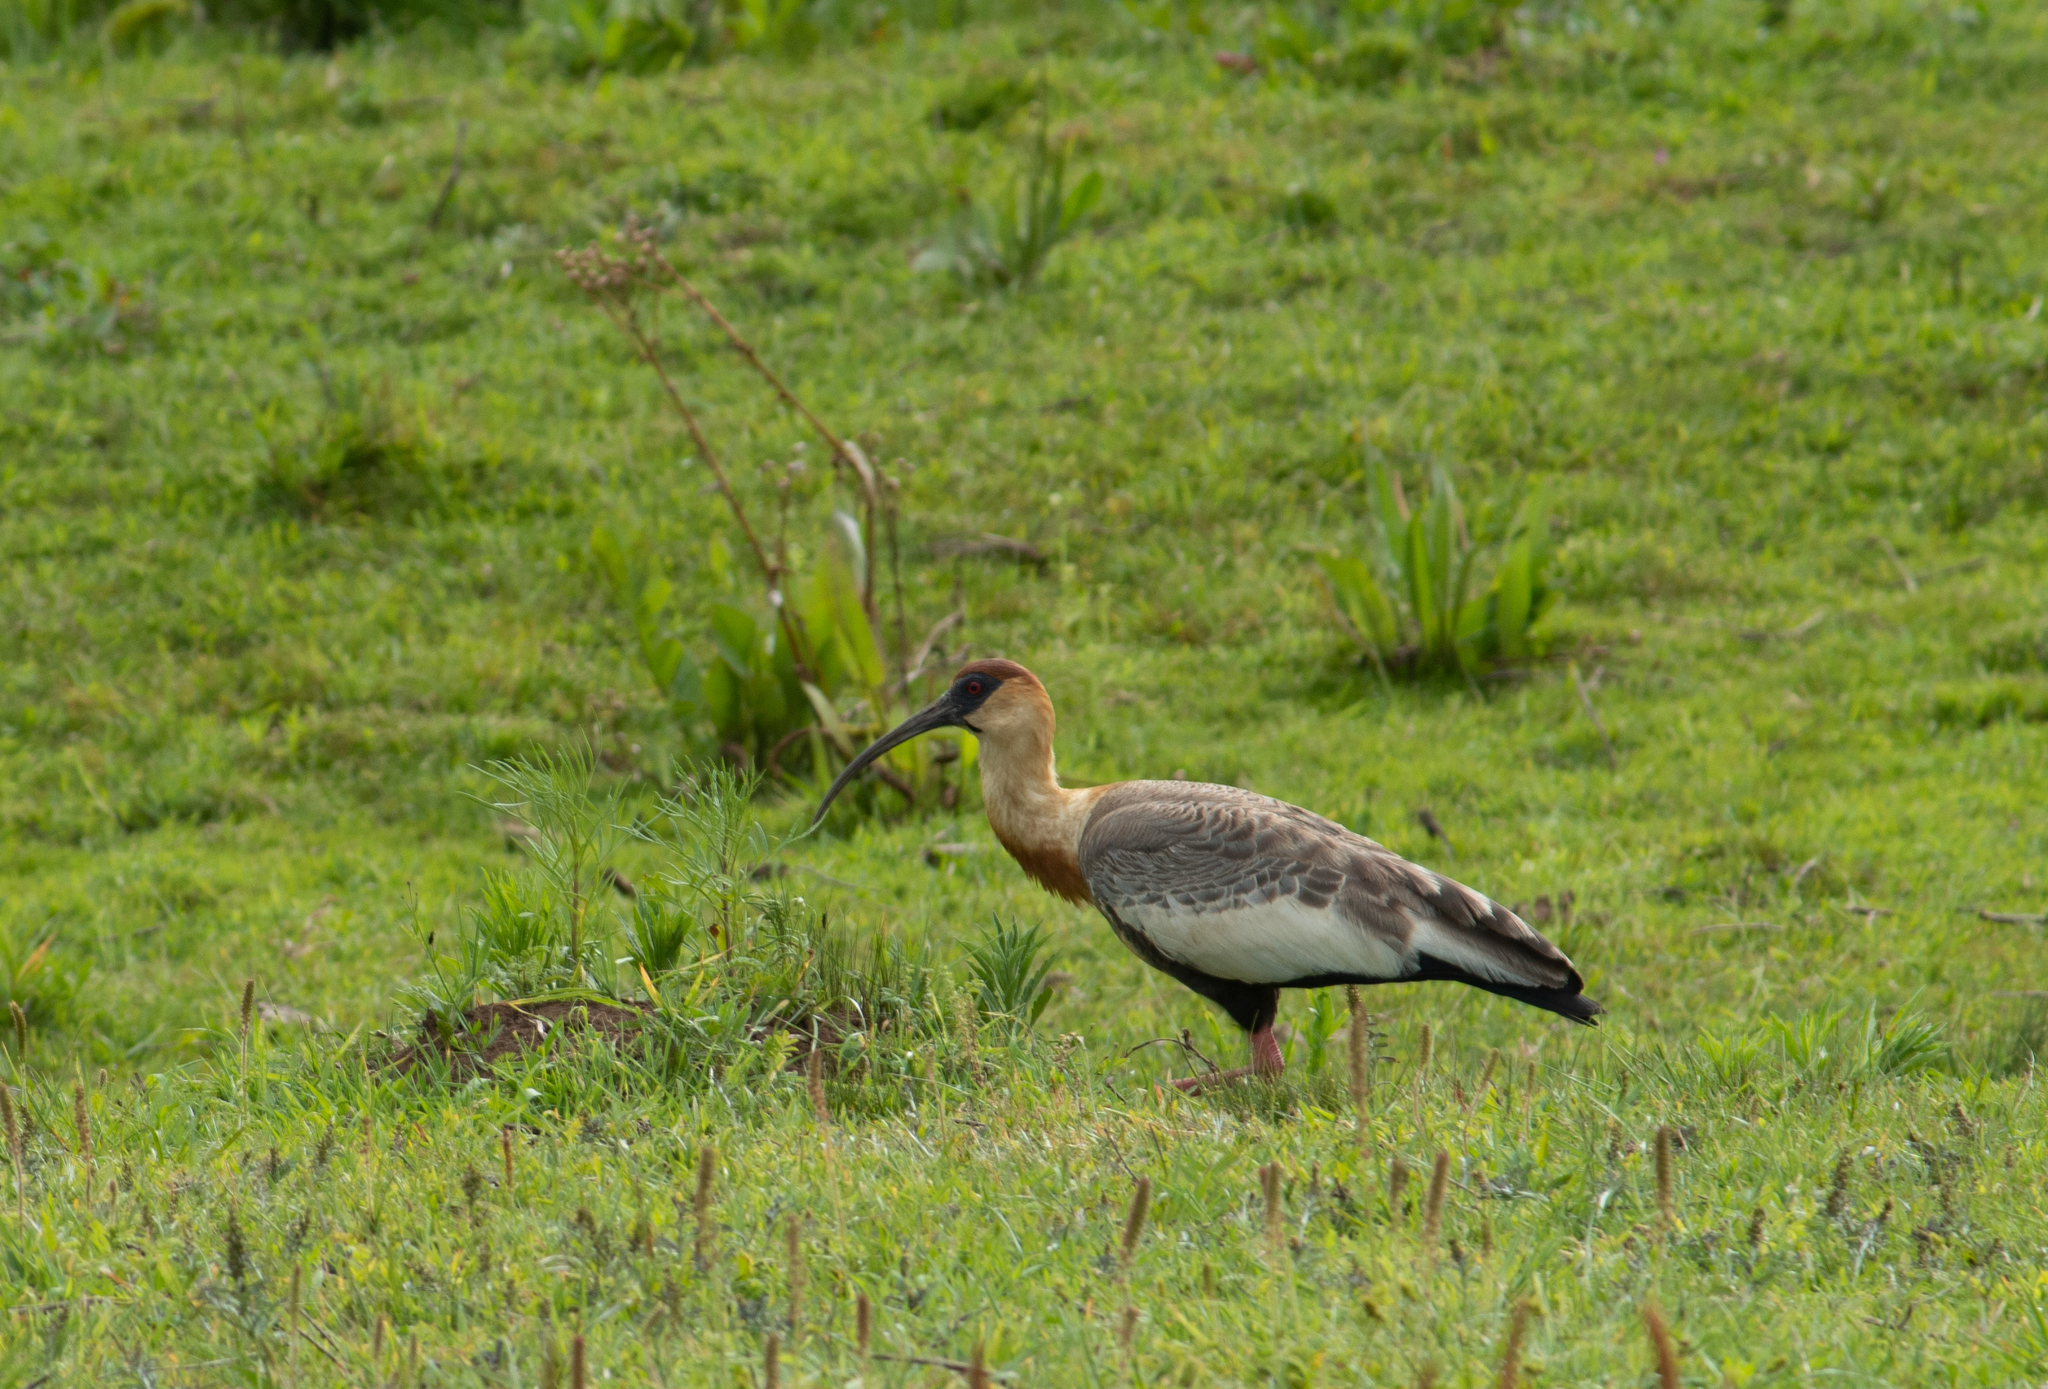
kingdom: Animalia
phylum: Chordata
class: Aves
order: Pelecaniformes
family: Threskiornithidae
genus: Theristicus
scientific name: Theristicus caudatus
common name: Buff-necked ibis
